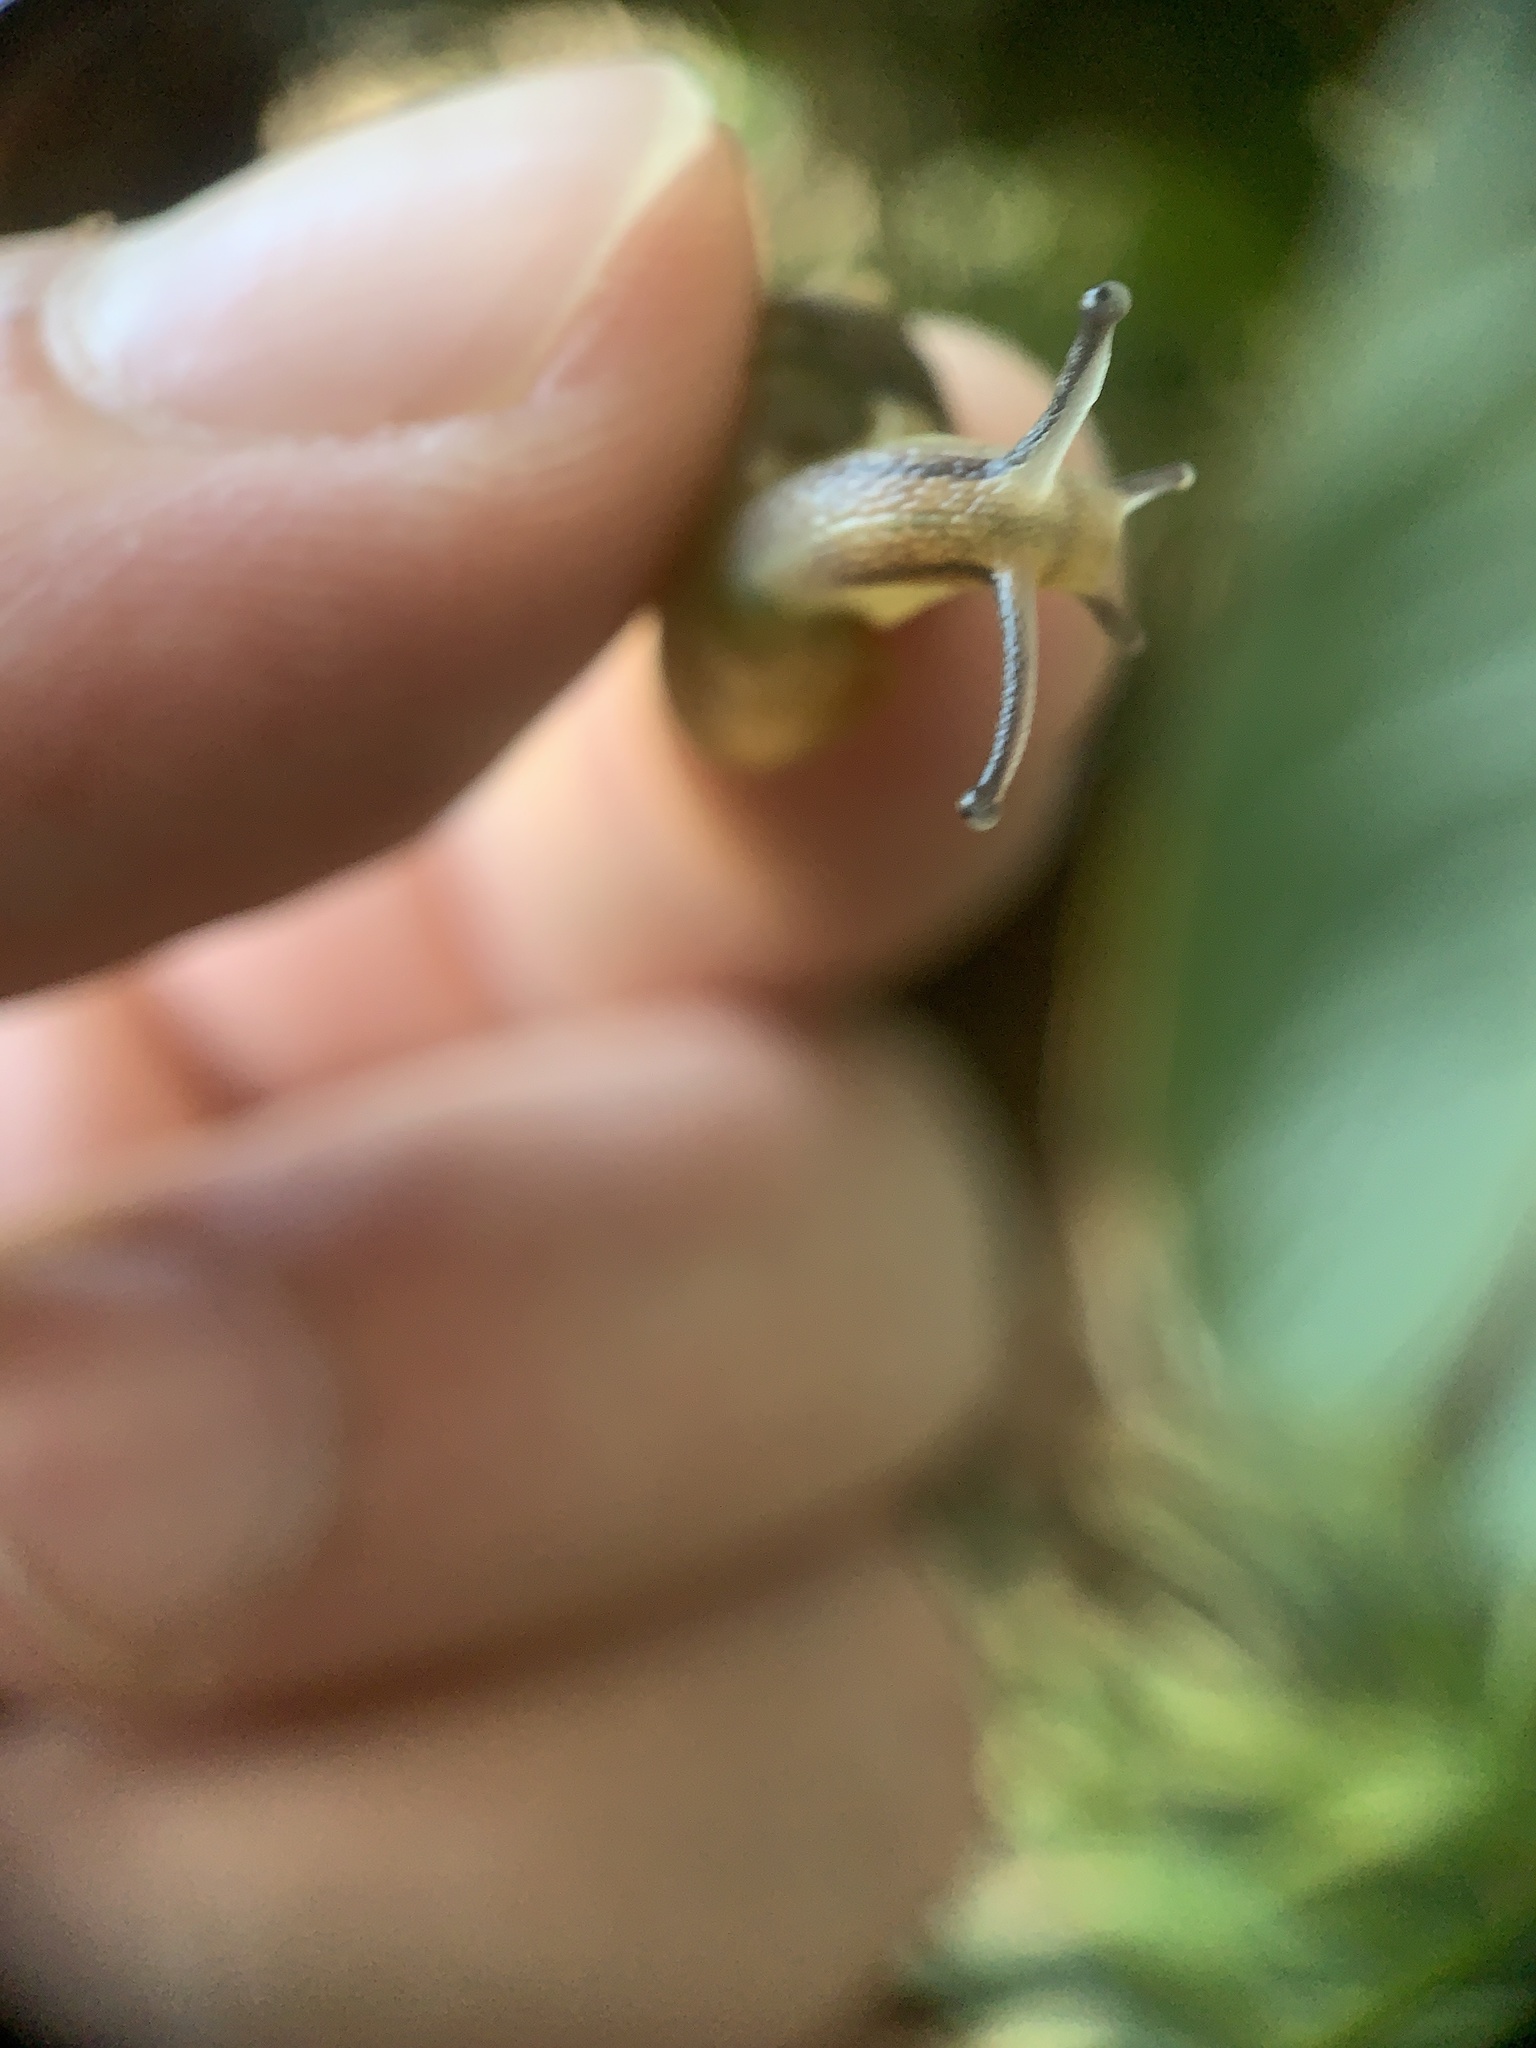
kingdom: Animalia
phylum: Mollusca
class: Gastropoda
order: Stylommatophora
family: Helicidae
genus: Cornu
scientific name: Cornu aspersum
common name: Brown garden snail
